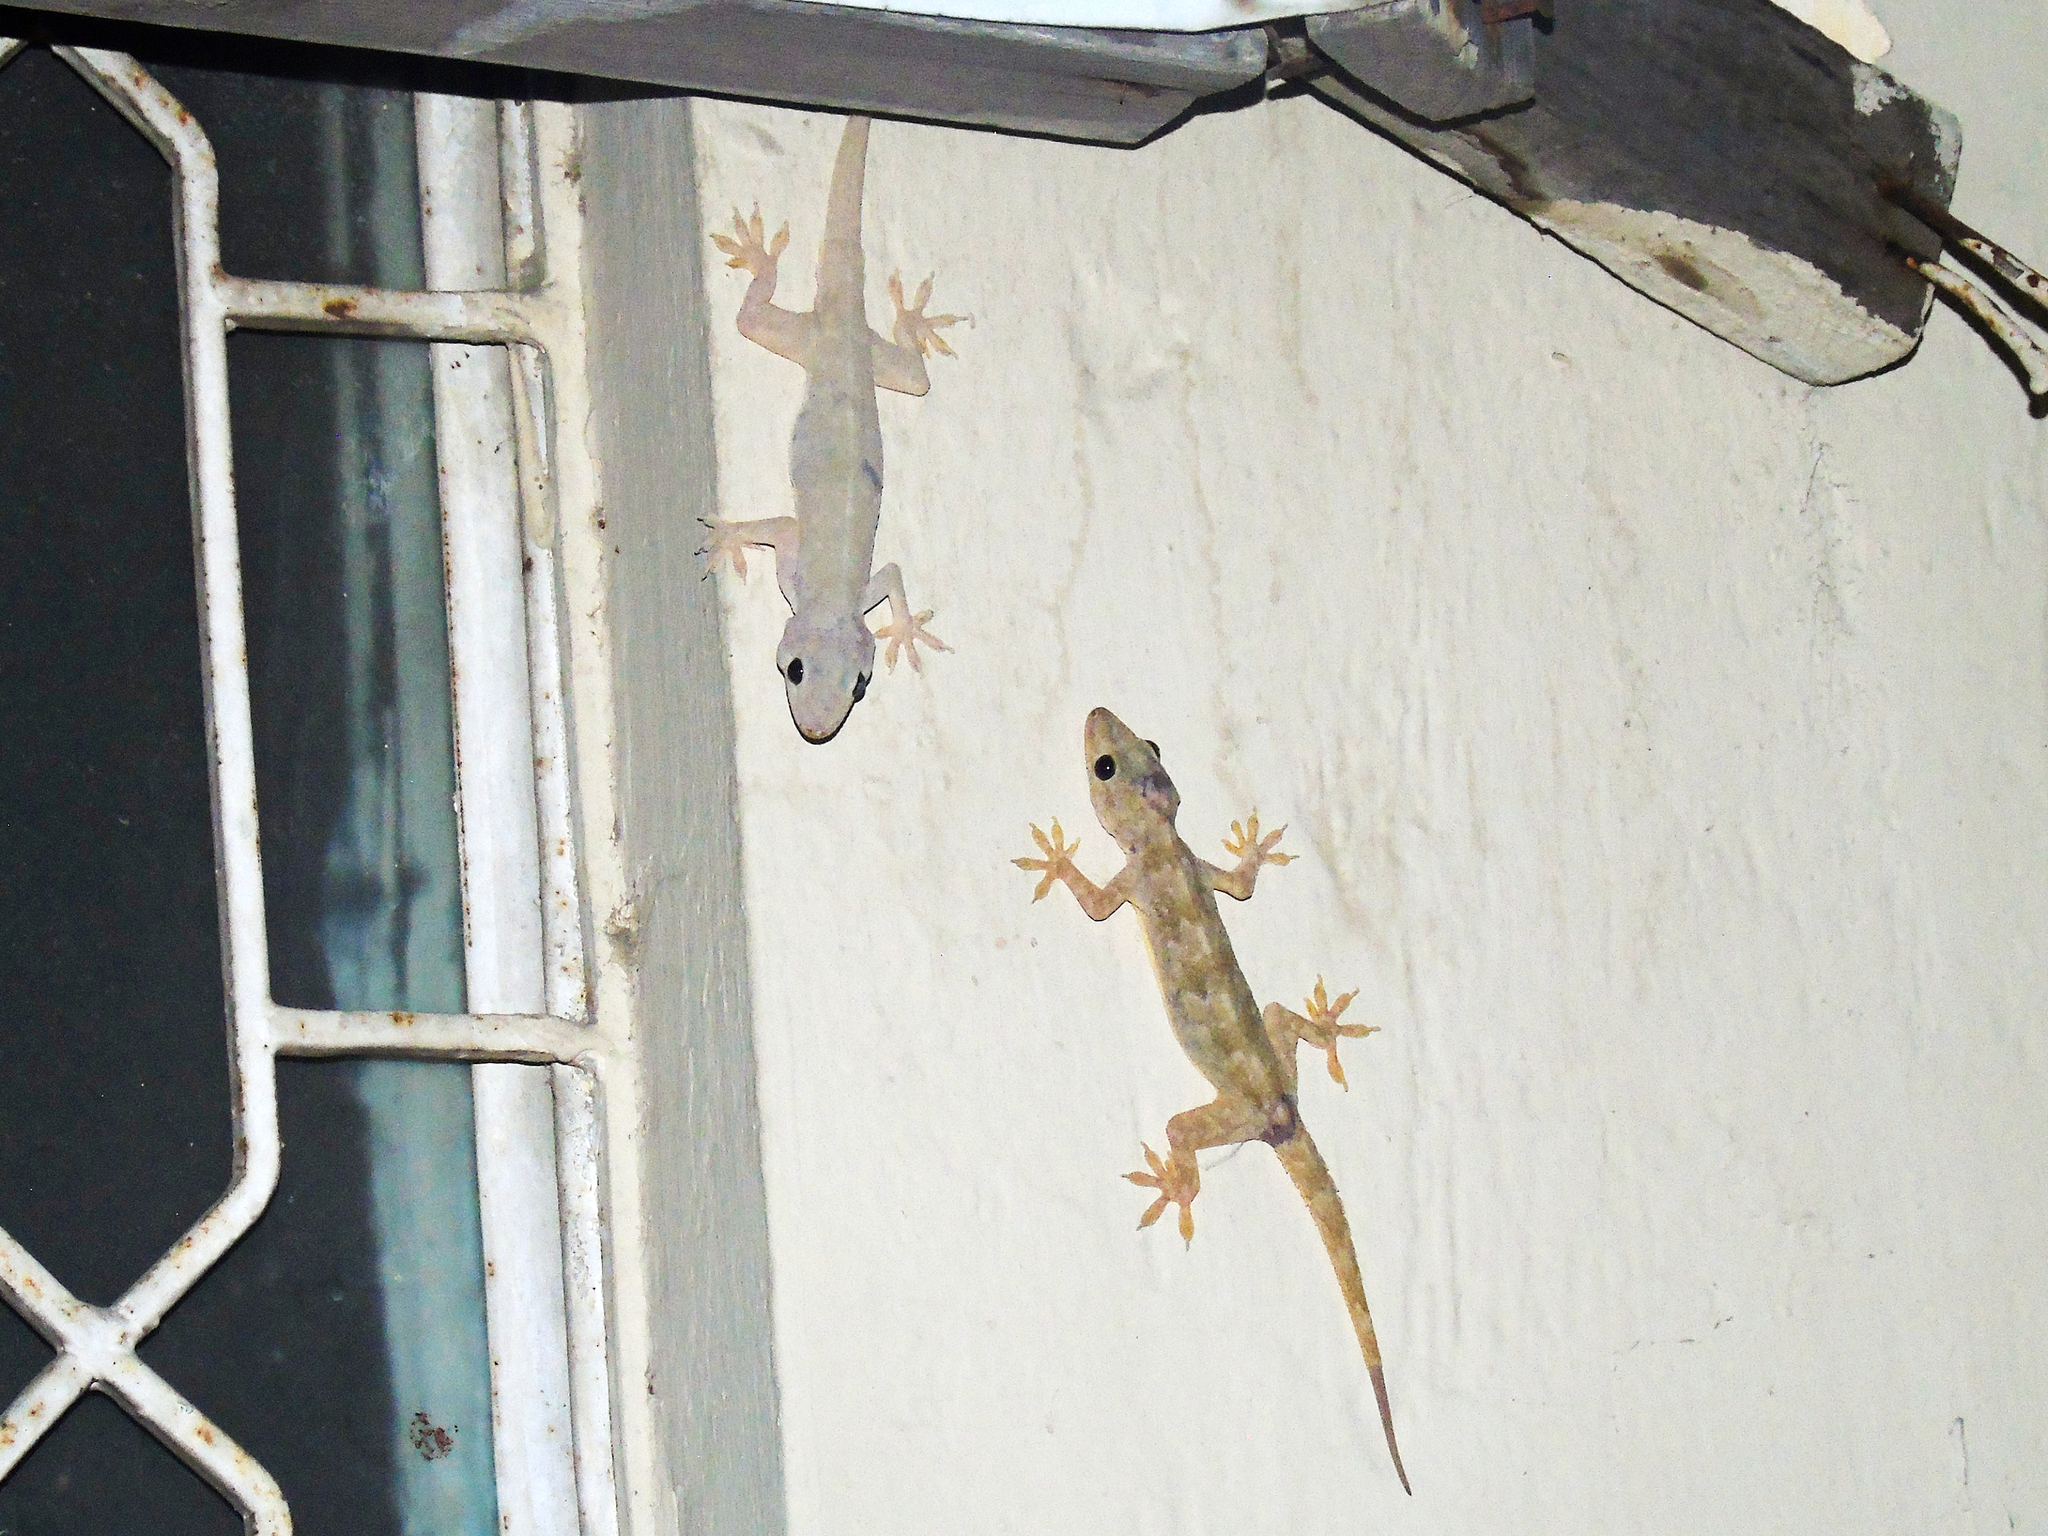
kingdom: Animalia
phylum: Chordata
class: Squamata
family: Gekkonidae
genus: Hemidactylus
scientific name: Hemidactylus flaviviridis
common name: Northern house gecko
